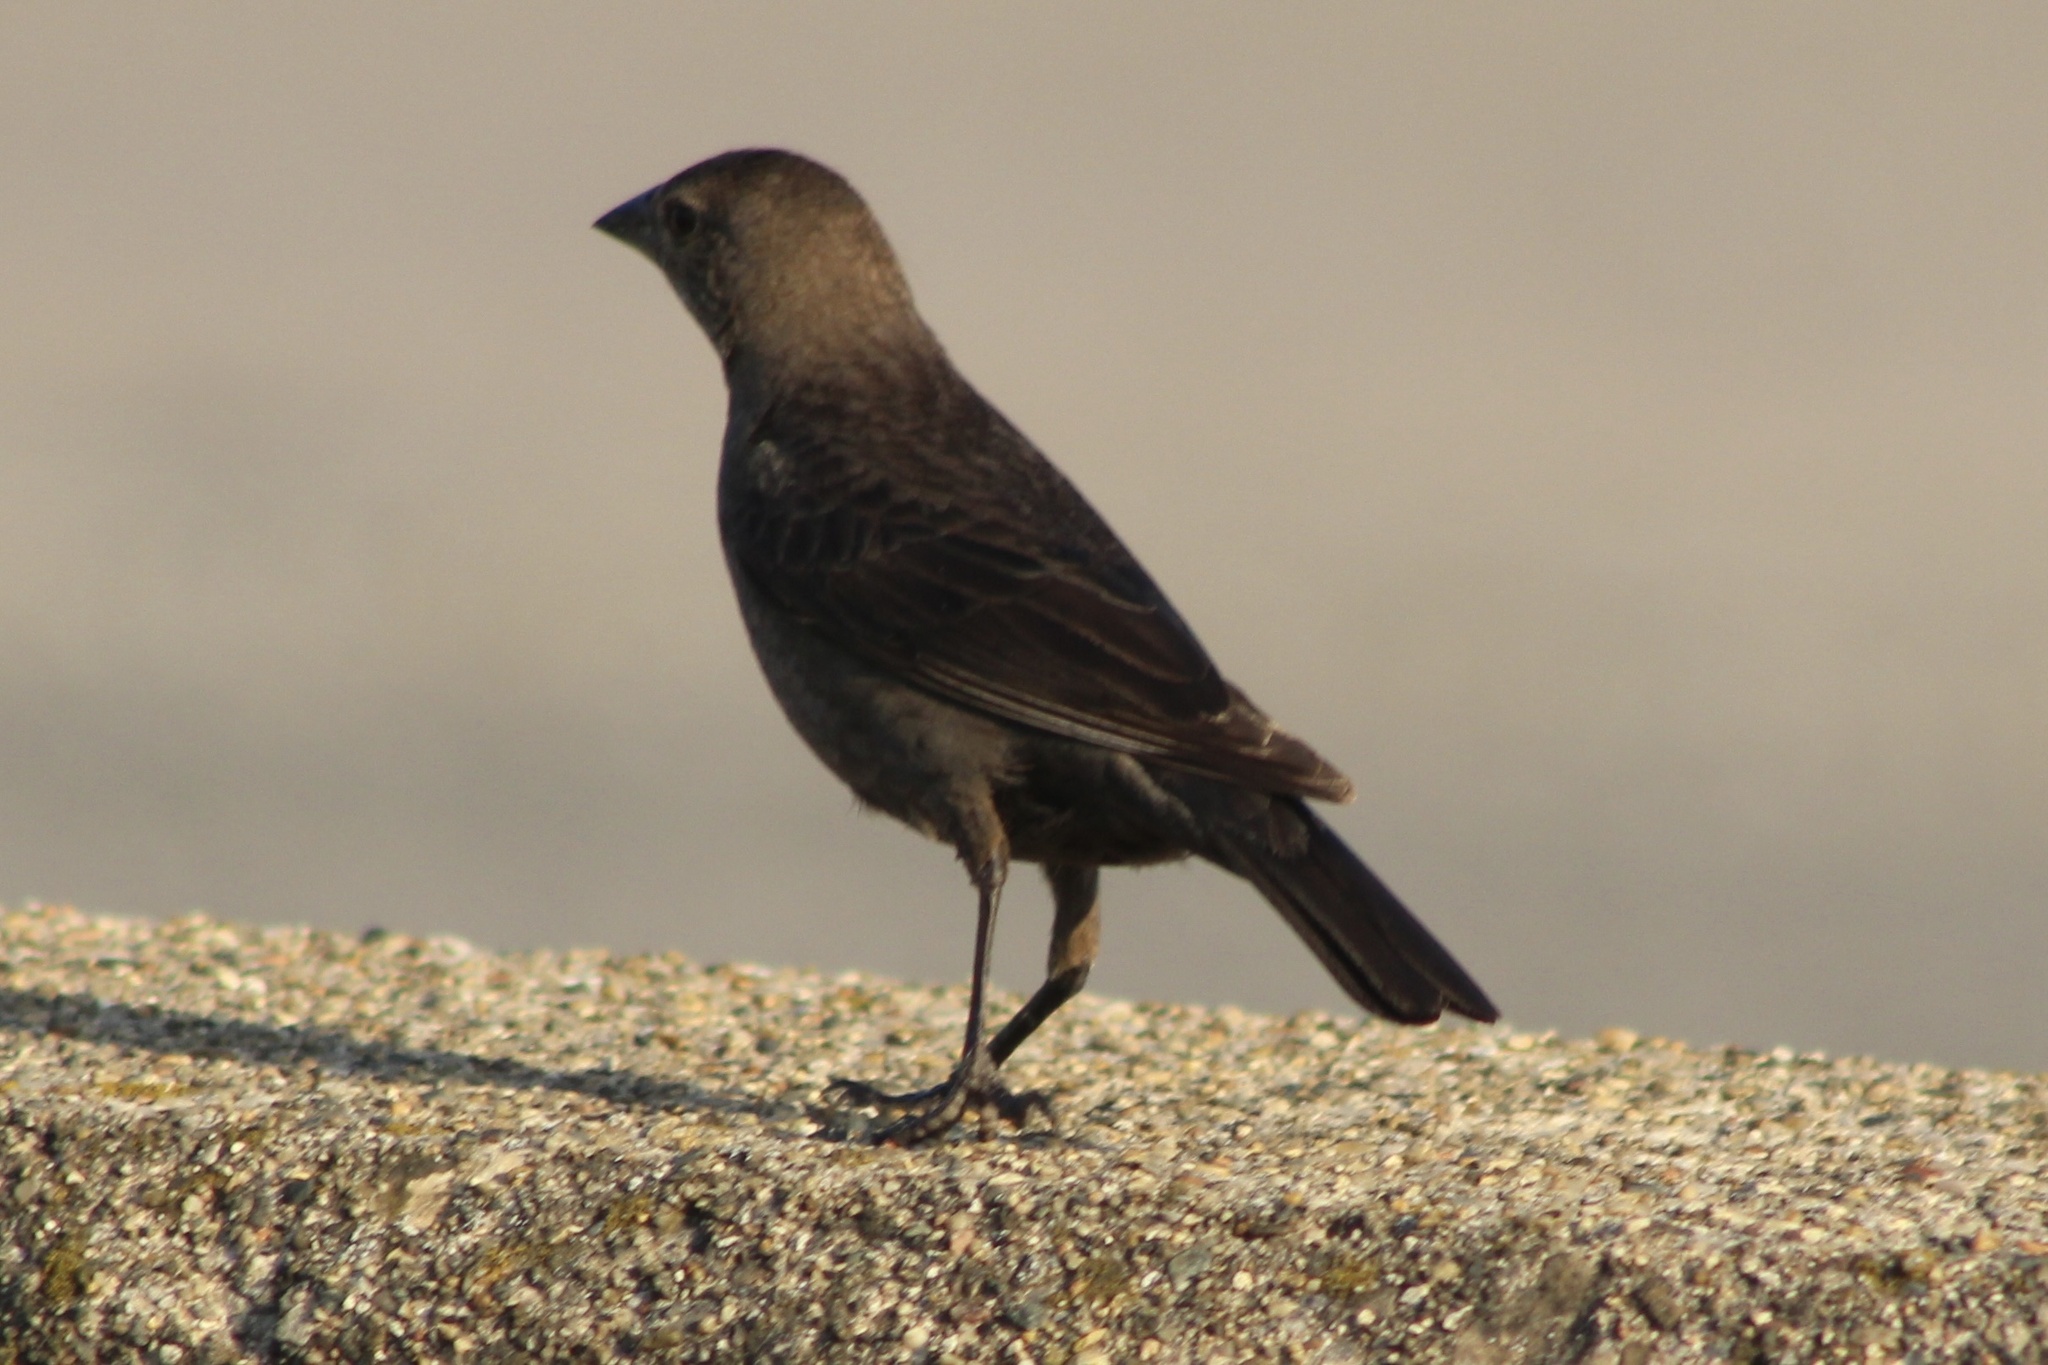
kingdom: Animalia
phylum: Chordata
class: Aves
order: Passeriformes
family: Icteridae
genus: Molothrus
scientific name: Molothrus ater
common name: Brown-headed cowbird
